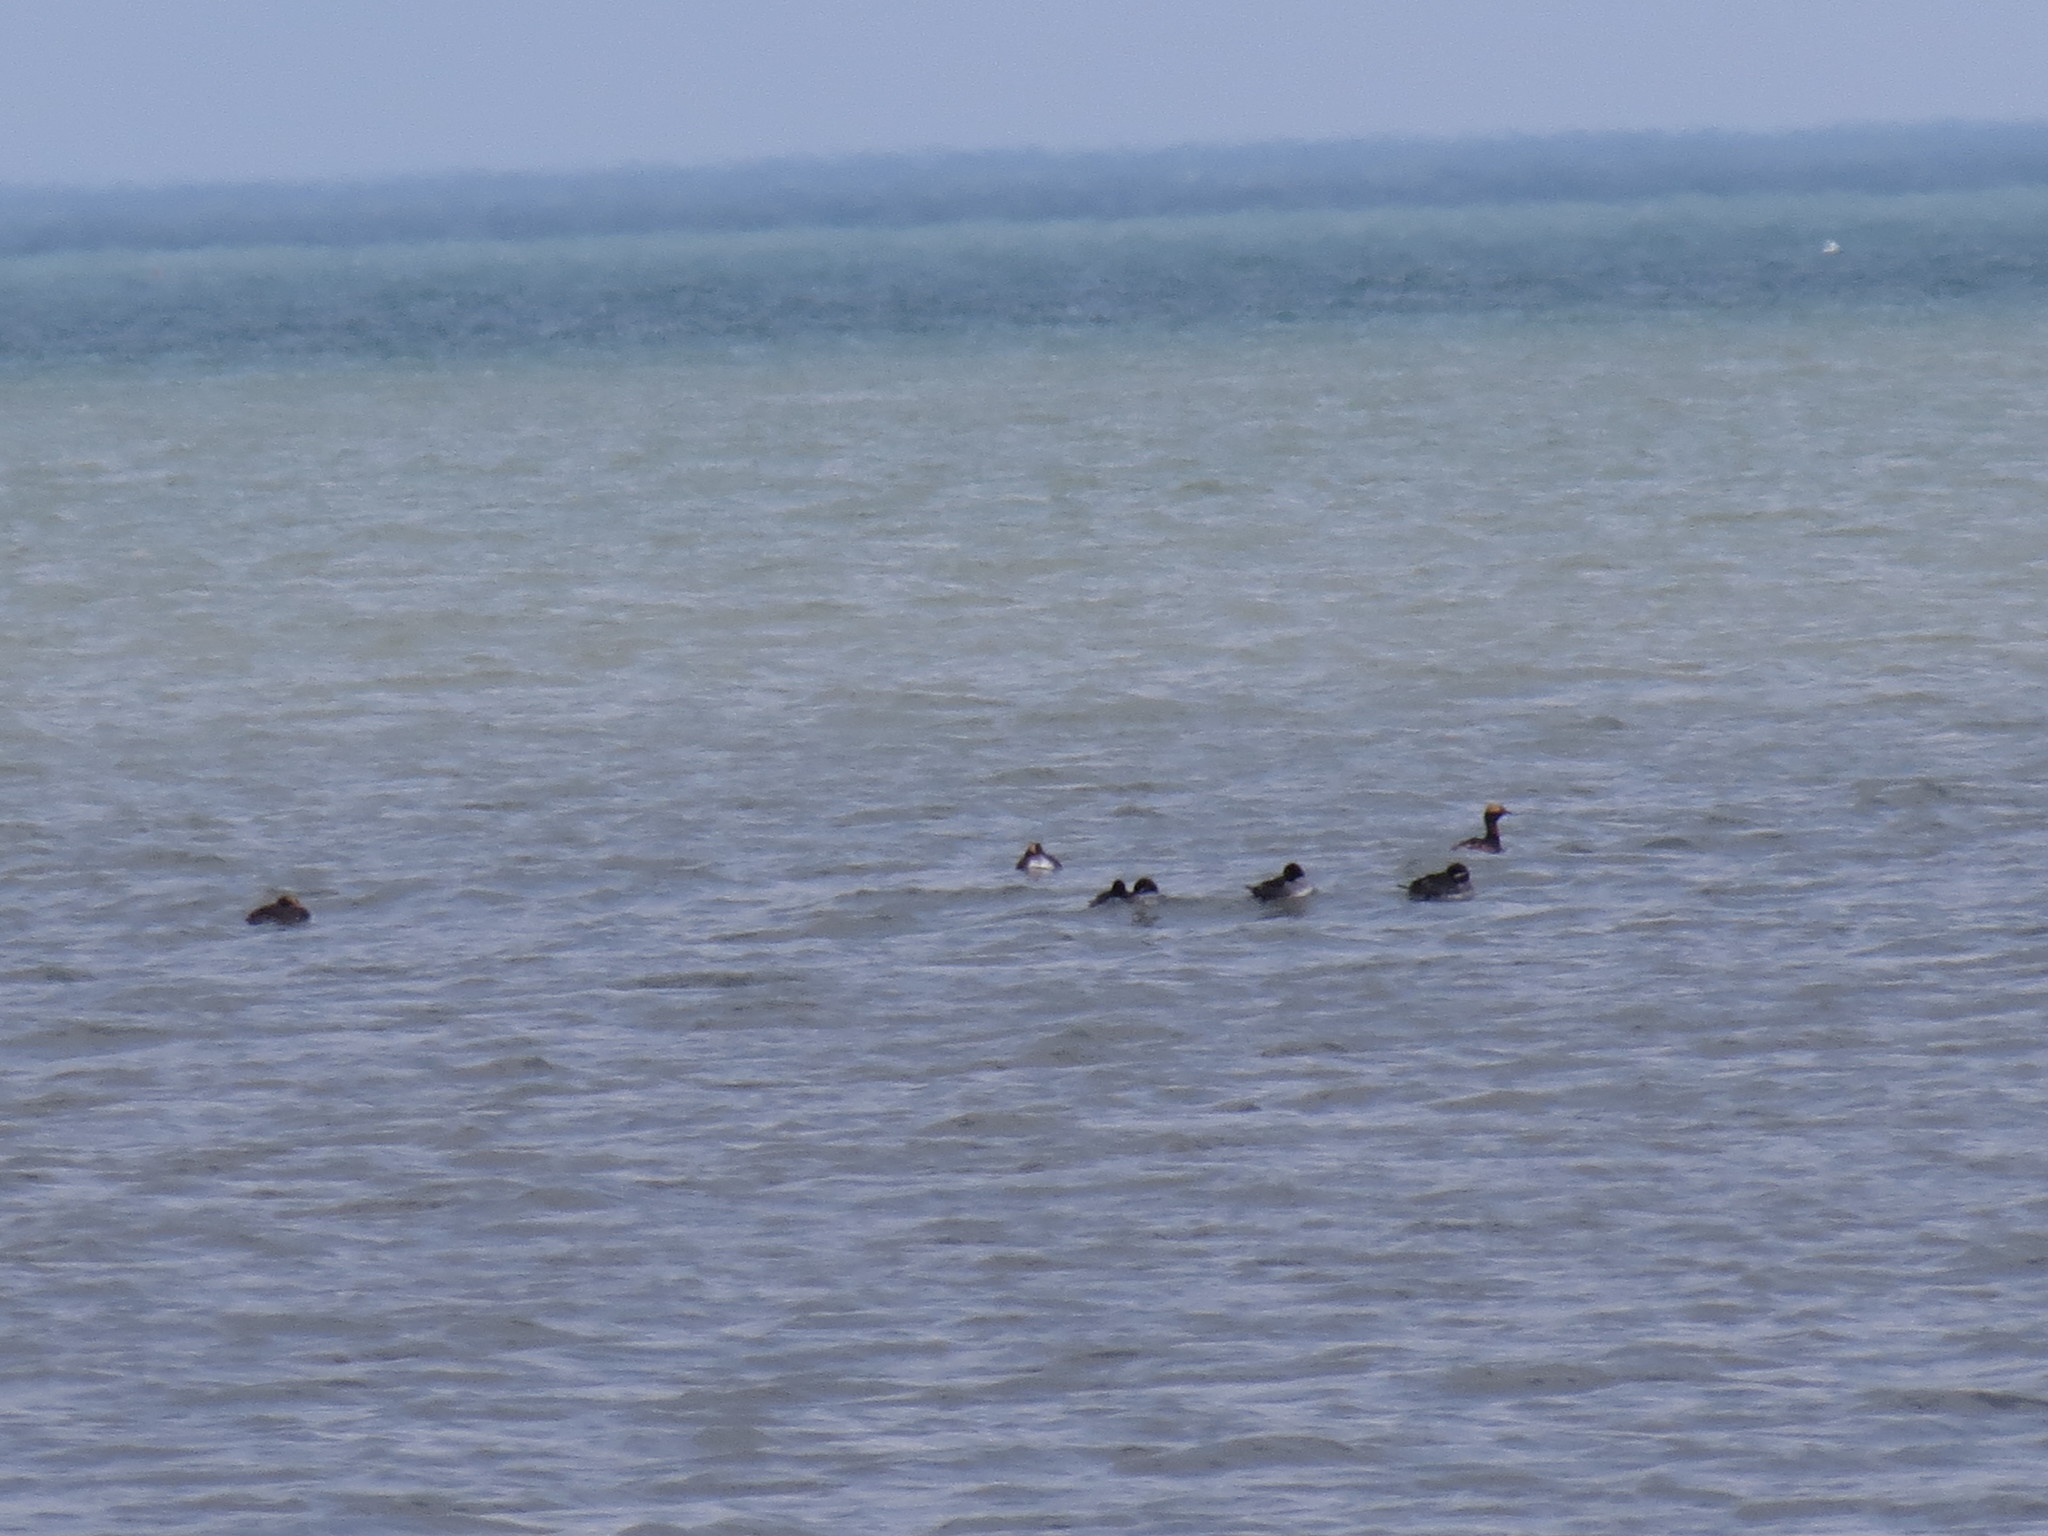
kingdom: Animalia
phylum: Chordata
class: Aves
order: Podicipediformes
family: Podicipedidae
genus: Podiceps
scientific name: Podiceps auritus
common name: Horned grebe
